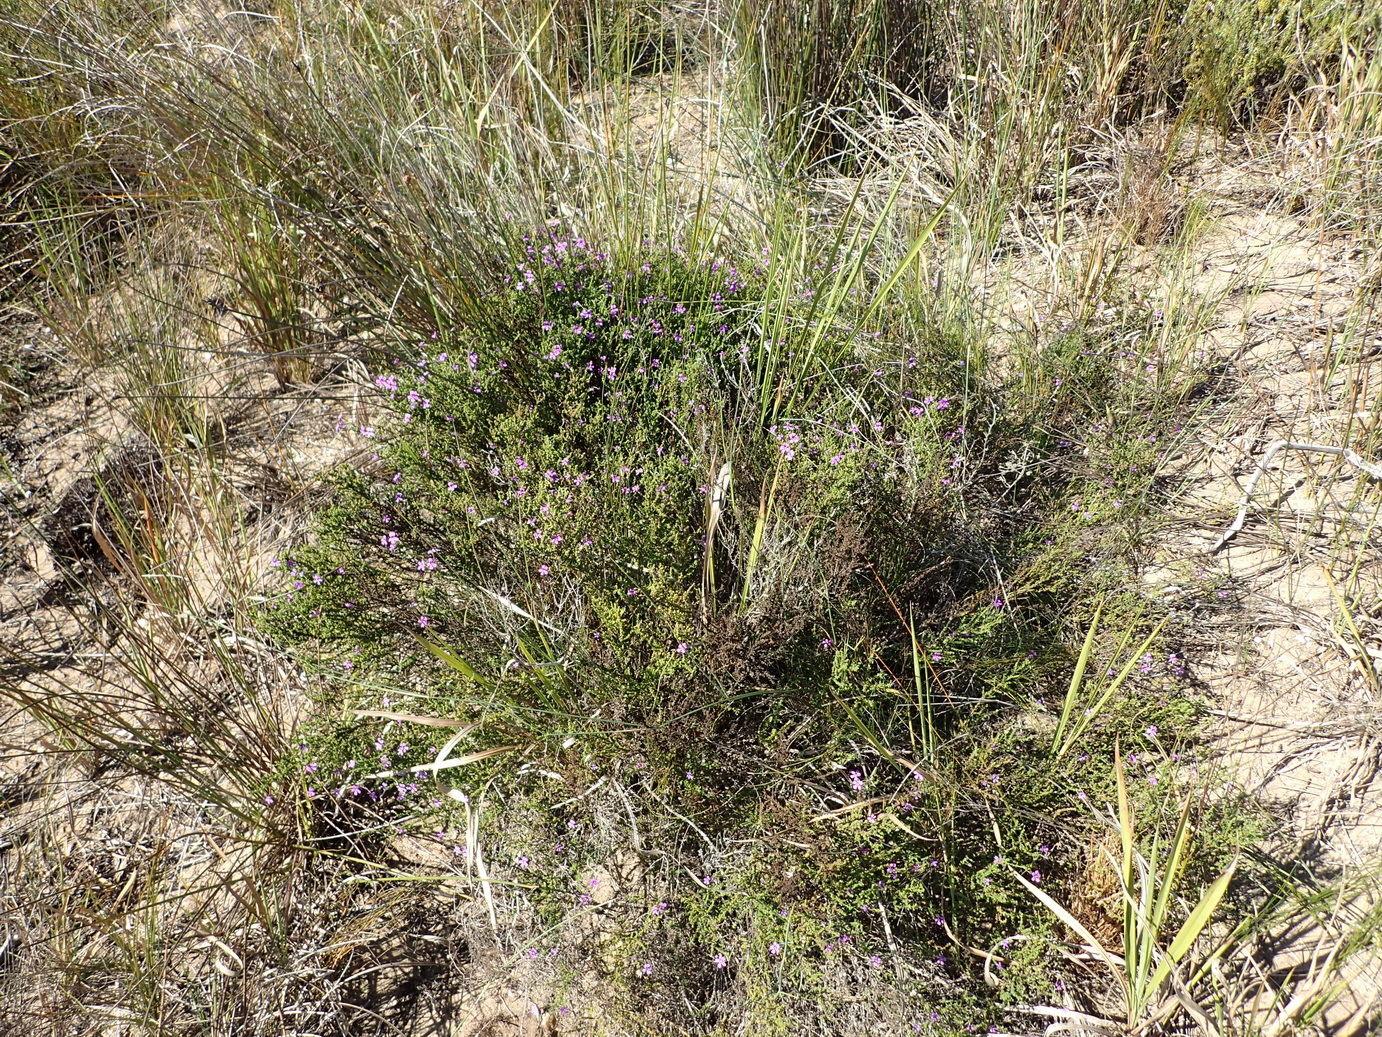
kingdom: Plantae
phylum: Tracheophyta
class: Magnoliopsida
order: Lamiales
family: Scrophulariaceae
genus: Jamesbrittenia
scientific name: Jamesbrittenia microphylla
